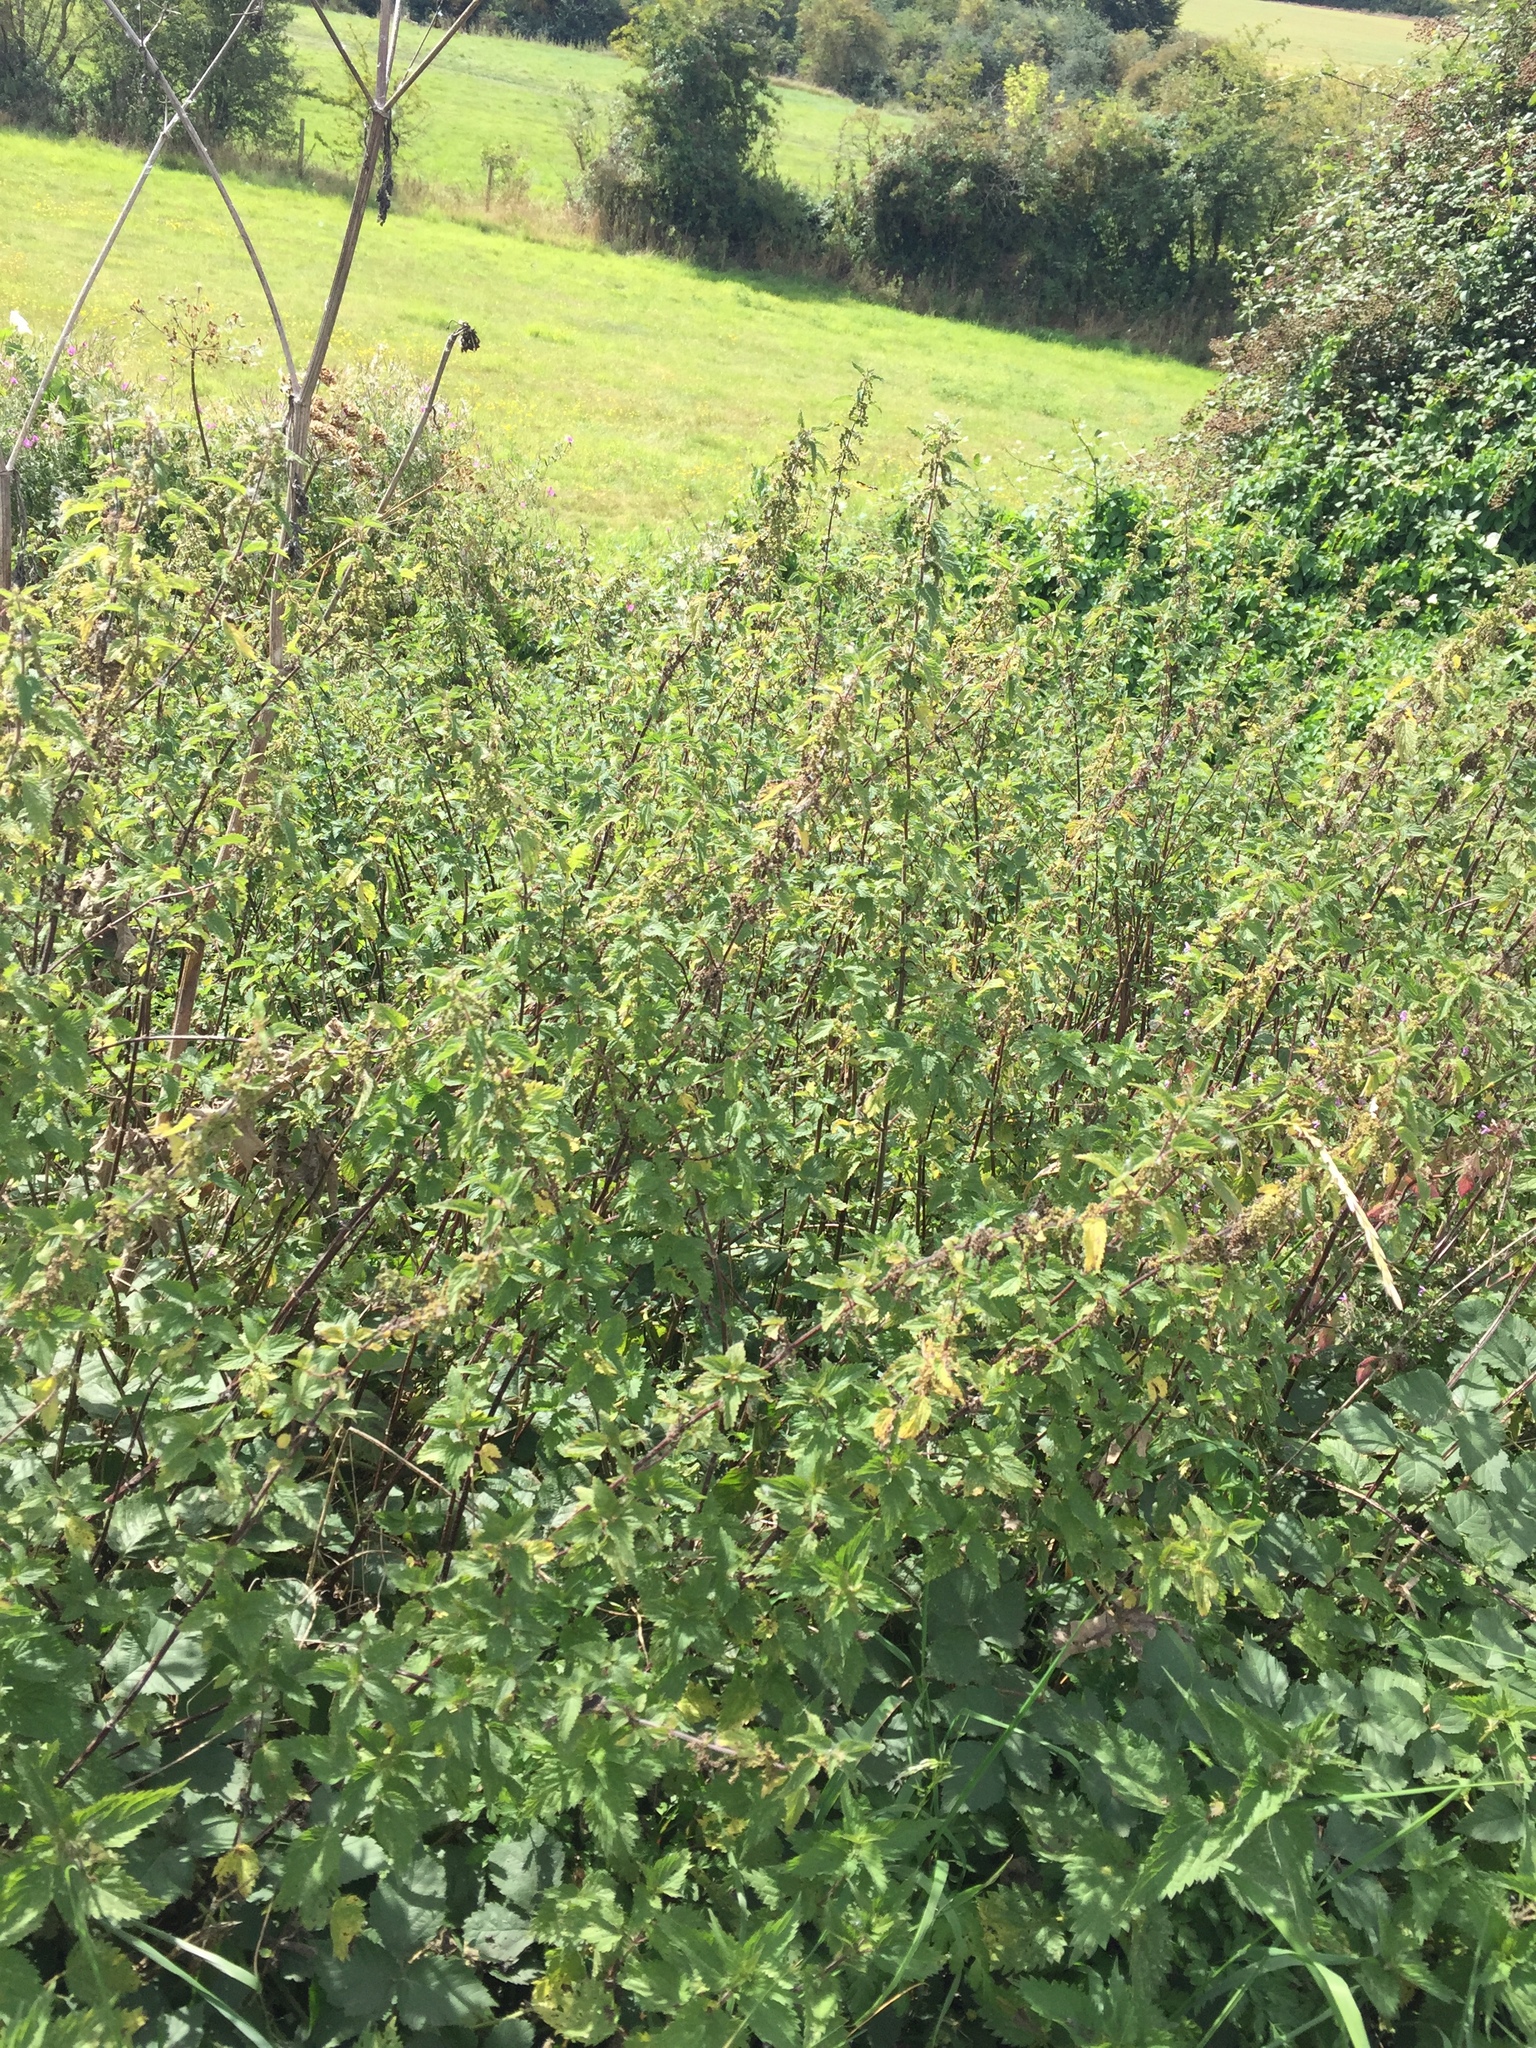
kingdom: Plantae
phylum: Tracheophyta
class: Magnoliopsida
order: Rosales
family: Urticaceae
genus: Urtica
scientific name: Urtica dioica
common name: Common nettle
